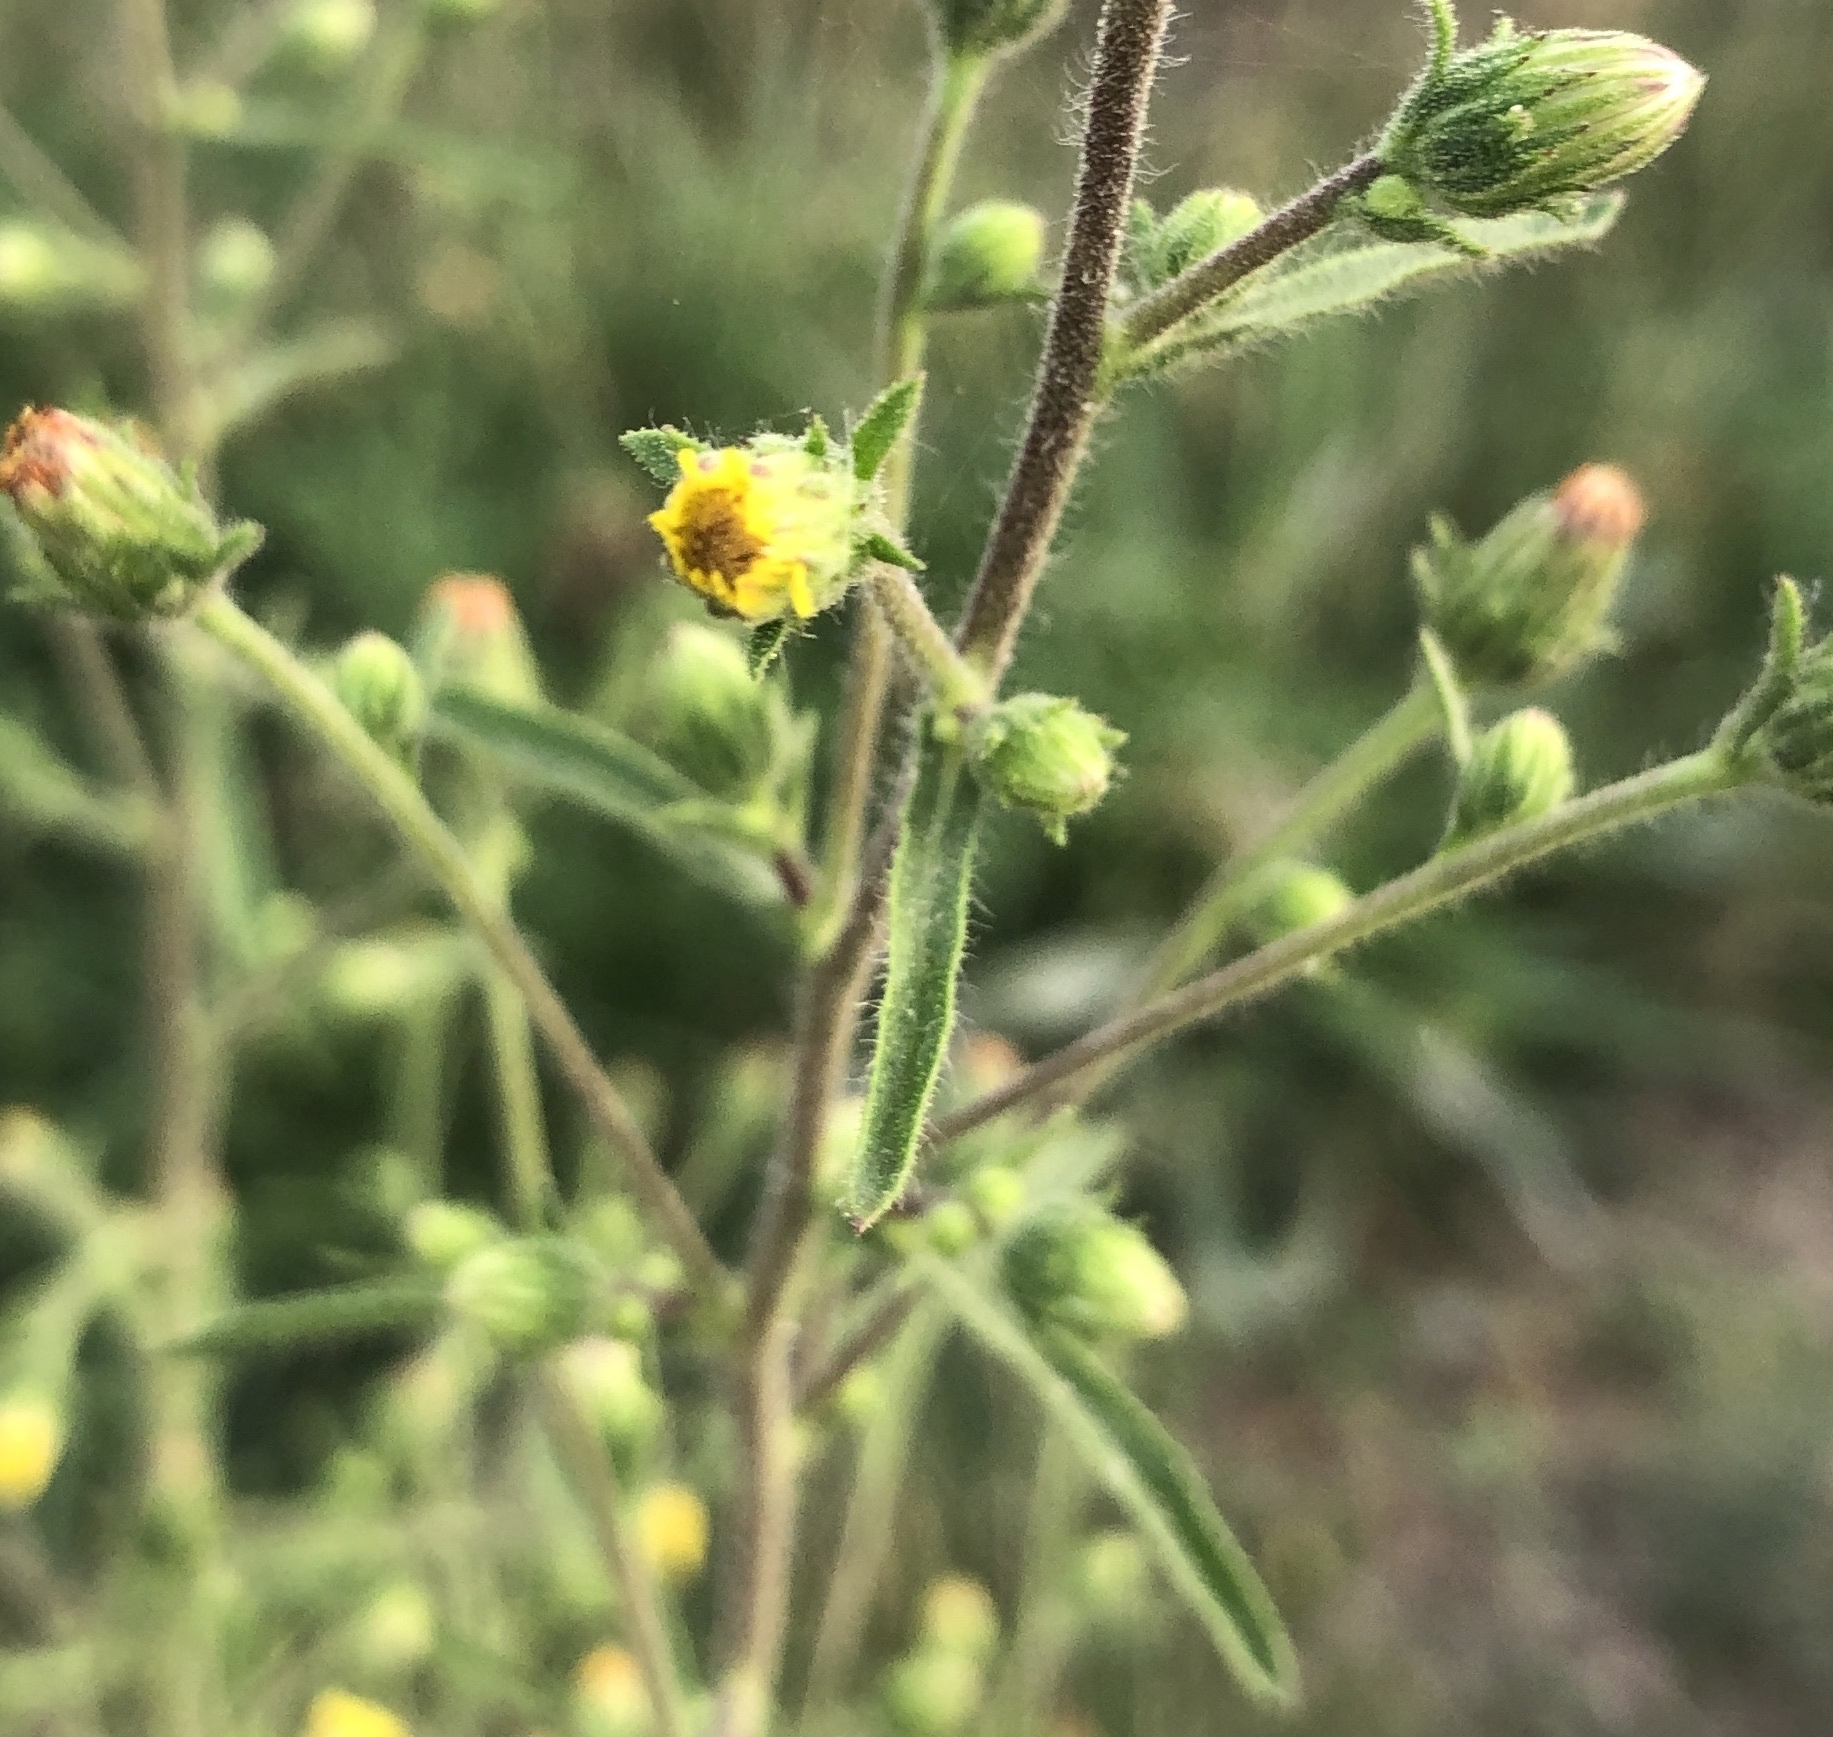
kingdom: Plantae
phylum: Tracheophyta
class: Magnoliopsida
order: Asterales
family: Asteraceae
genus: Dittrichia
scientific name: Dittrichia graveolens
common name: Stinking fleabane
